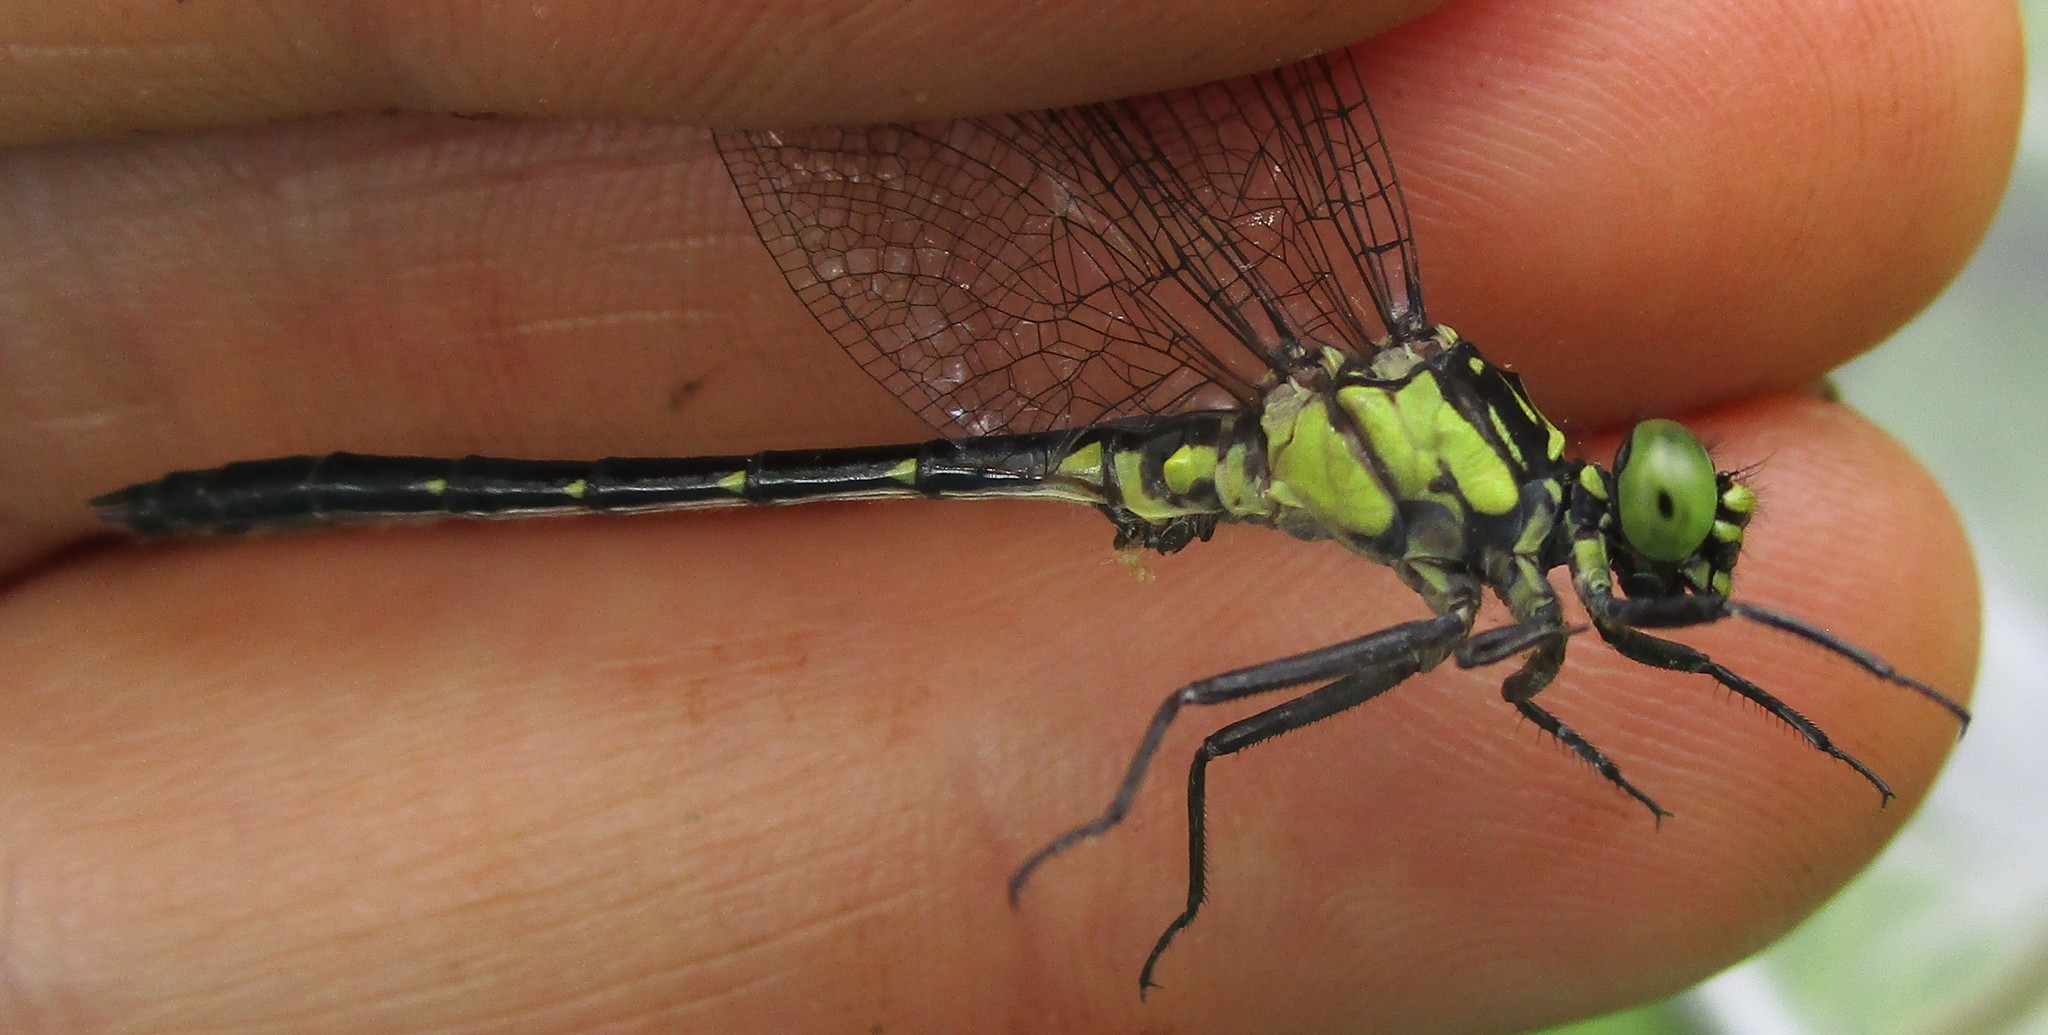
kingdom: Animalia
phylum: Arthropoda
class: Insecta
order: Odonata
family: Gomphidae
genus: Lanthus
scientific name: Lanthus vernalis
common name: Southern pygmy clubtail
